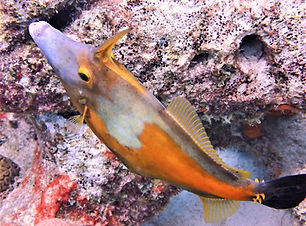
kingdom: Animalia
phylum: Chordata
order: Tetraodontiformes
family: Monacanthidae
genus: Cantherhines
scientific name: Cantherhines macrocerus
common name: Whitespotted filefish
